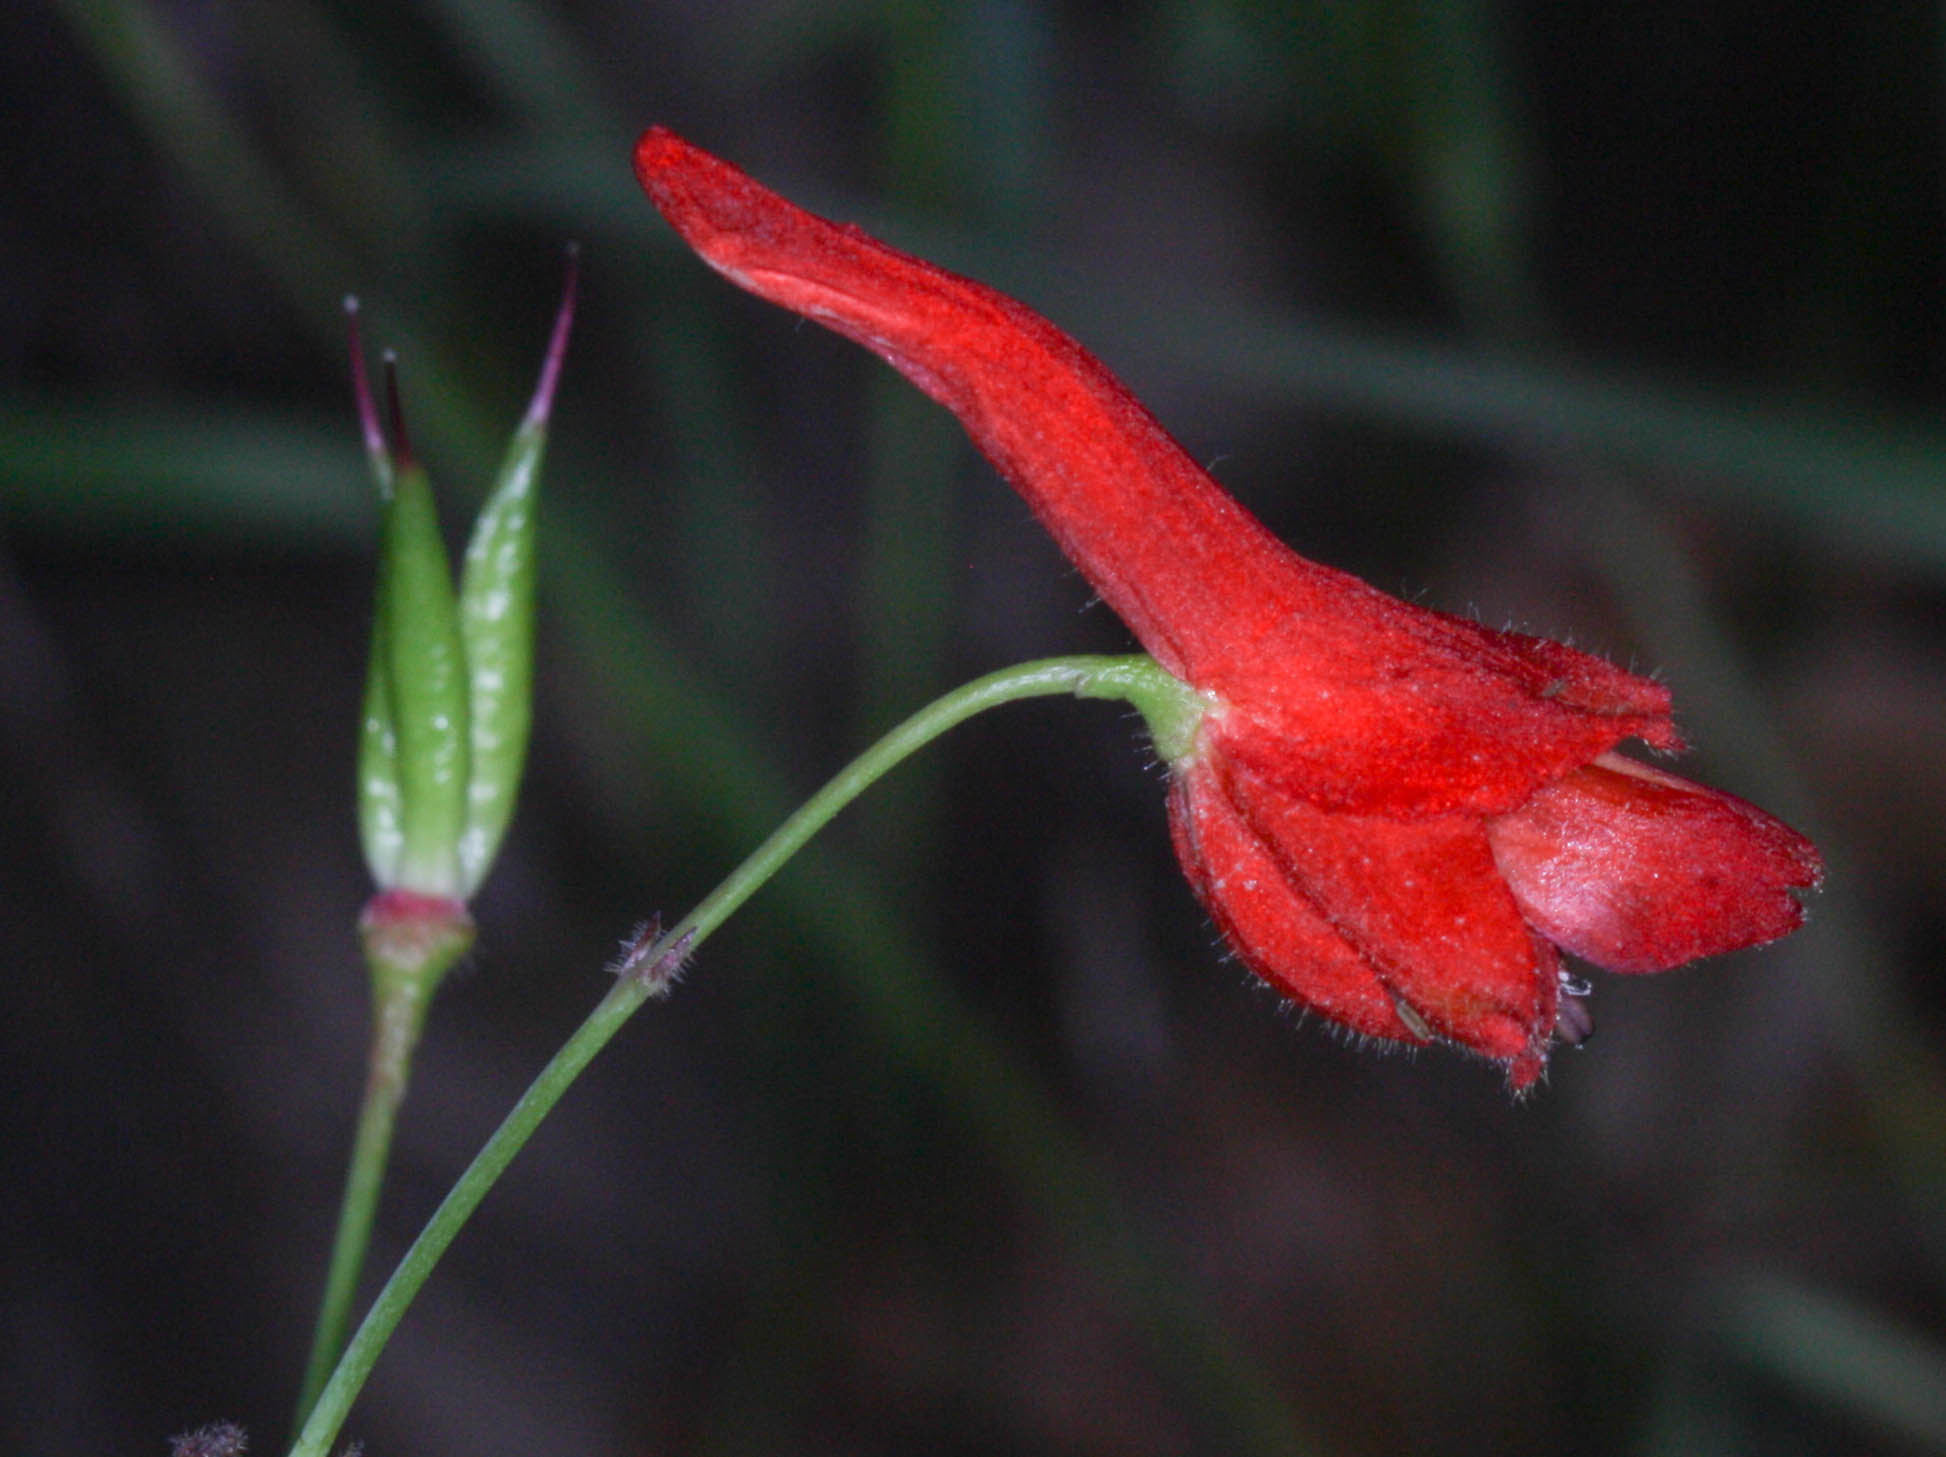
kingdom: Plantae
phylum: Tracheophyta
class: Magnoliopsida
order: Ranunculales
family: Ranunculaceae
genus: Delphinium
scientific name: Delphinium nudicaule
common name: Red larkspur
